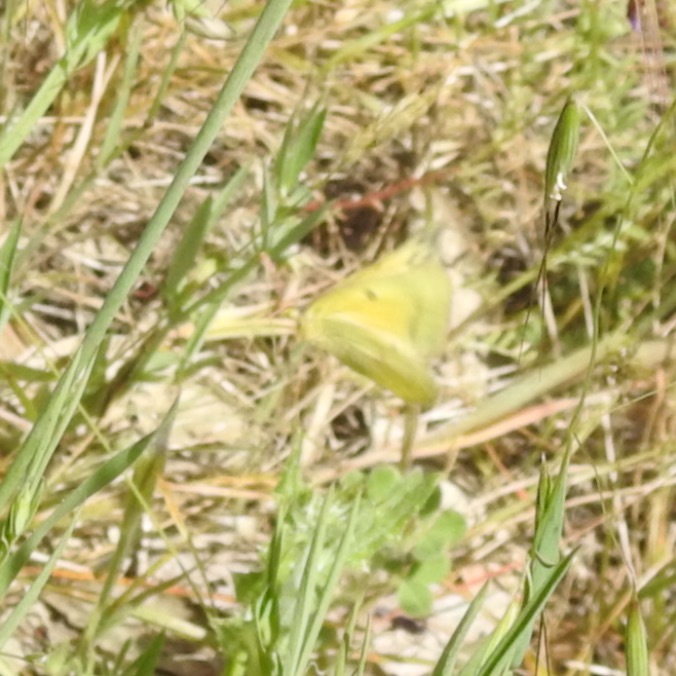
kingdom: Animalia
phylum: Arthropoda
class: Insecta
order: Lepidoptera
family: Pieridae
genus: Colias
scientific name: Colias eurytheme
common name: Alfalfa butterfly
